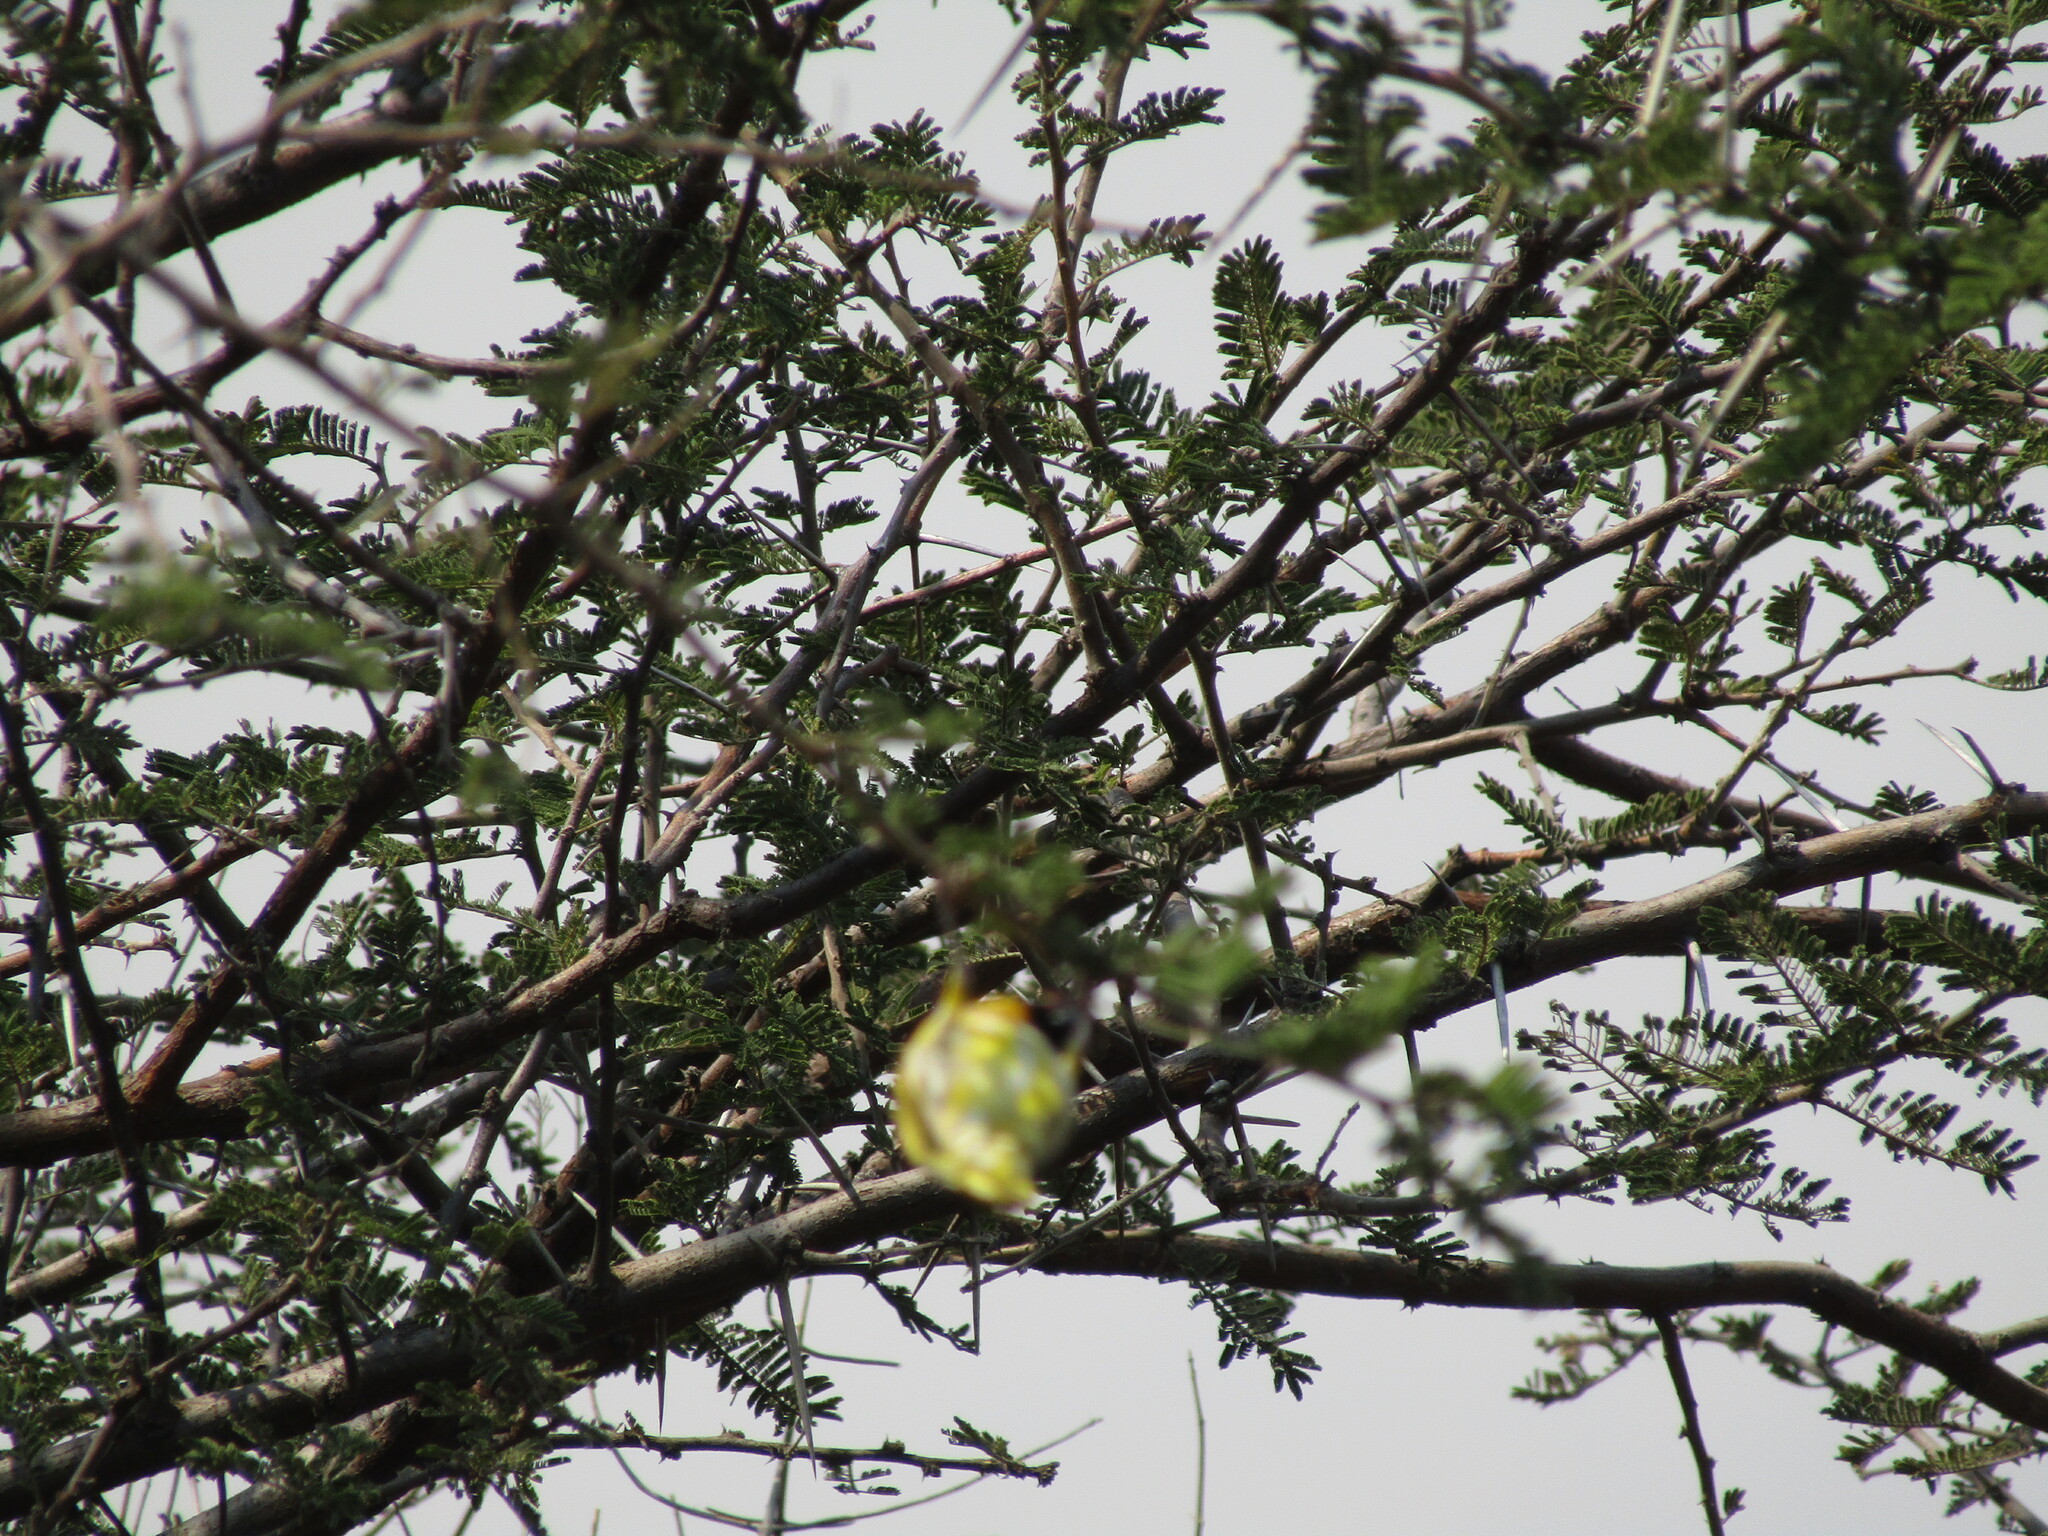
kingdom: Animalia
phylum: Chordata
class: Aves
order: Passeriformes
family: Ploceidae
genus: Ploceus
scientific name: Ploceus velatus
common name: Southern masked weaver
